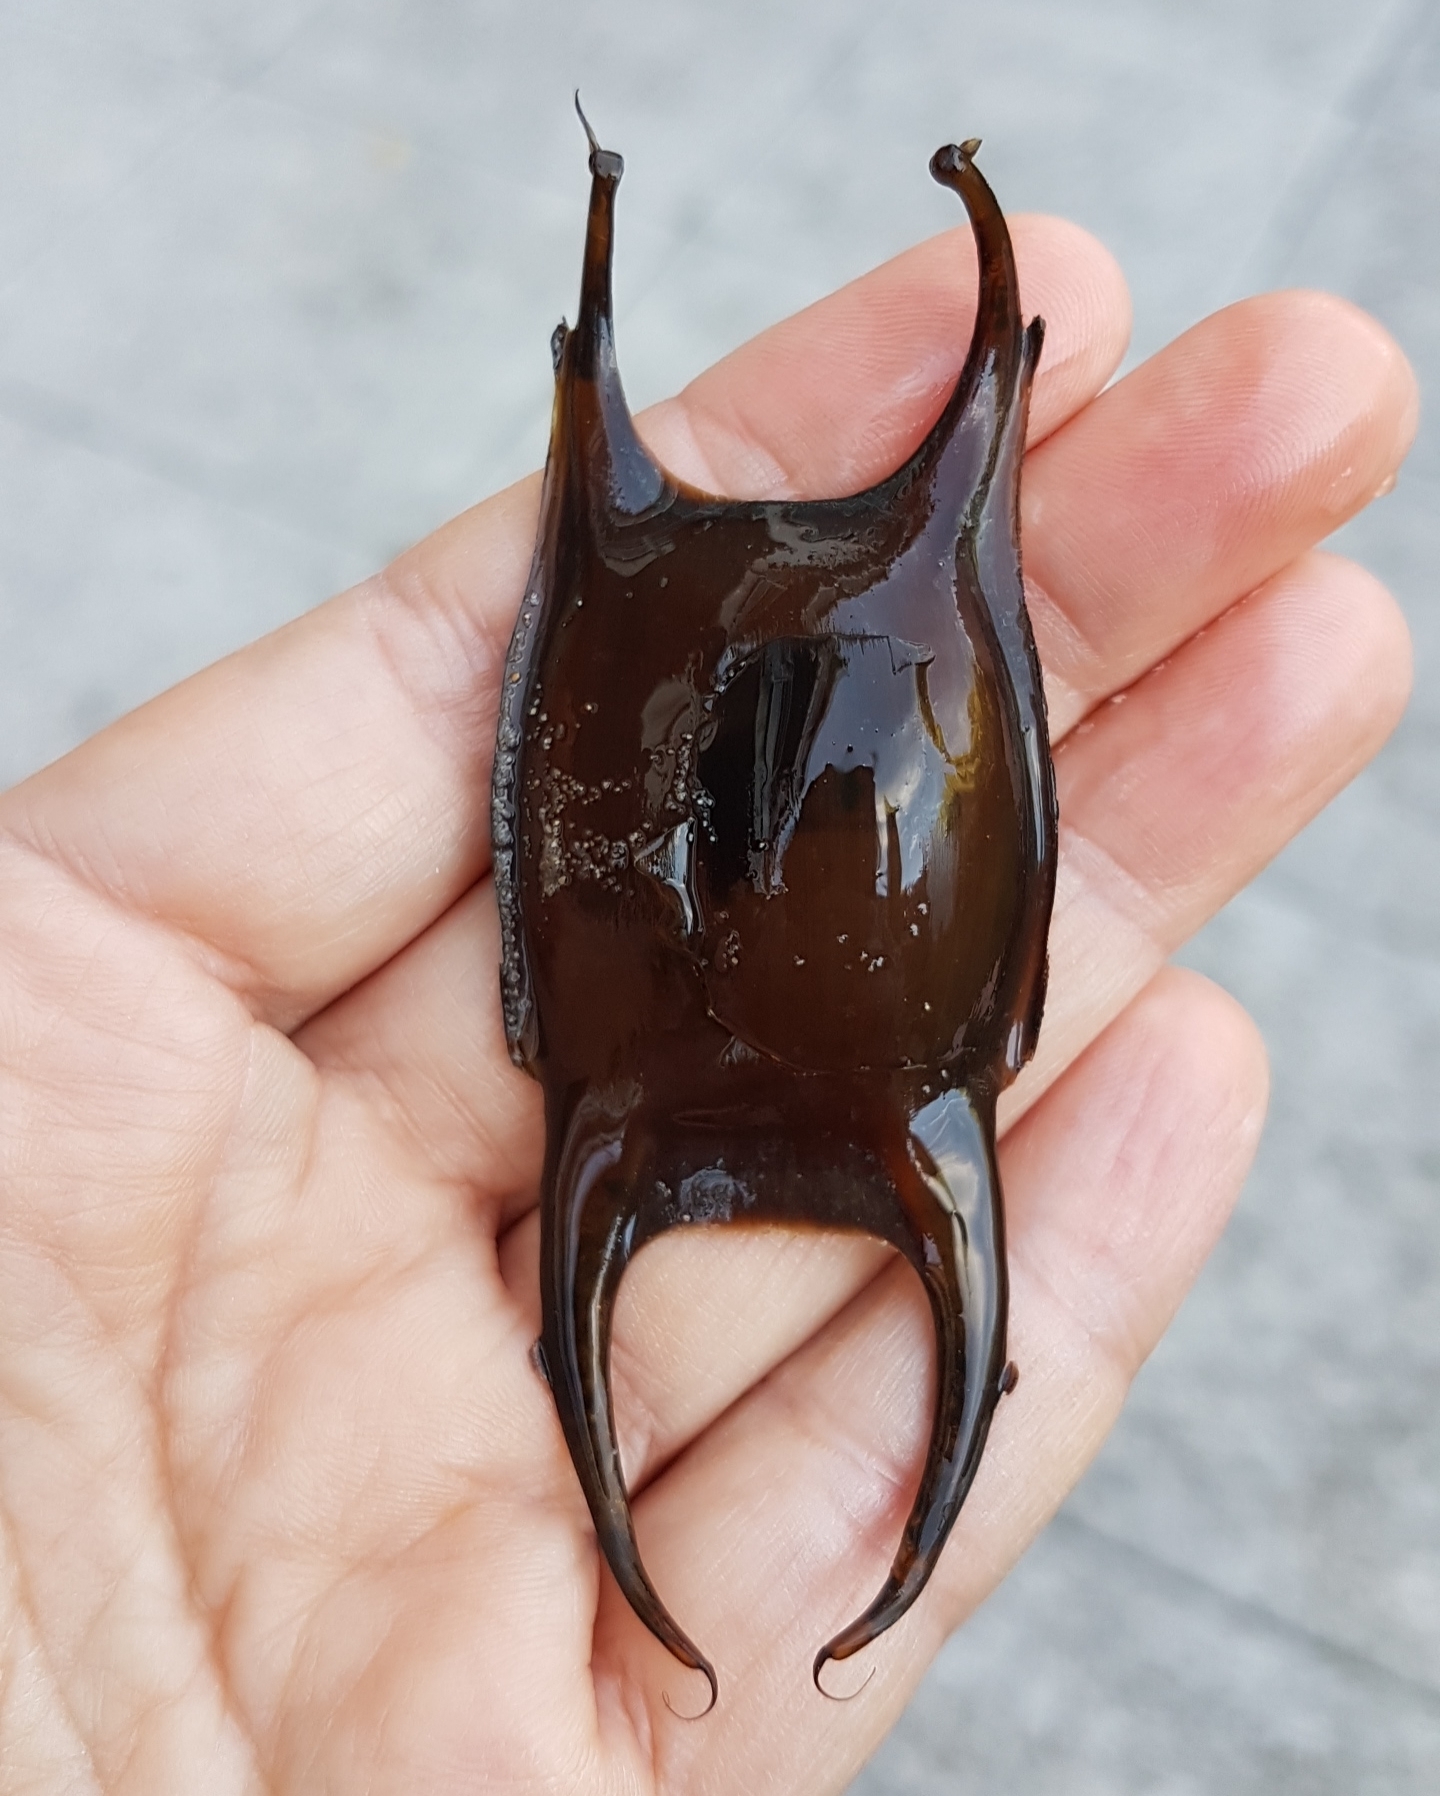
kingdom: Animalia
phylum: Chordata
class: Elasmobranchii
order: Rajiformes
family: Rajidae
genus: Raja
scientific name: Raja undulata
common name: Undulate ray
